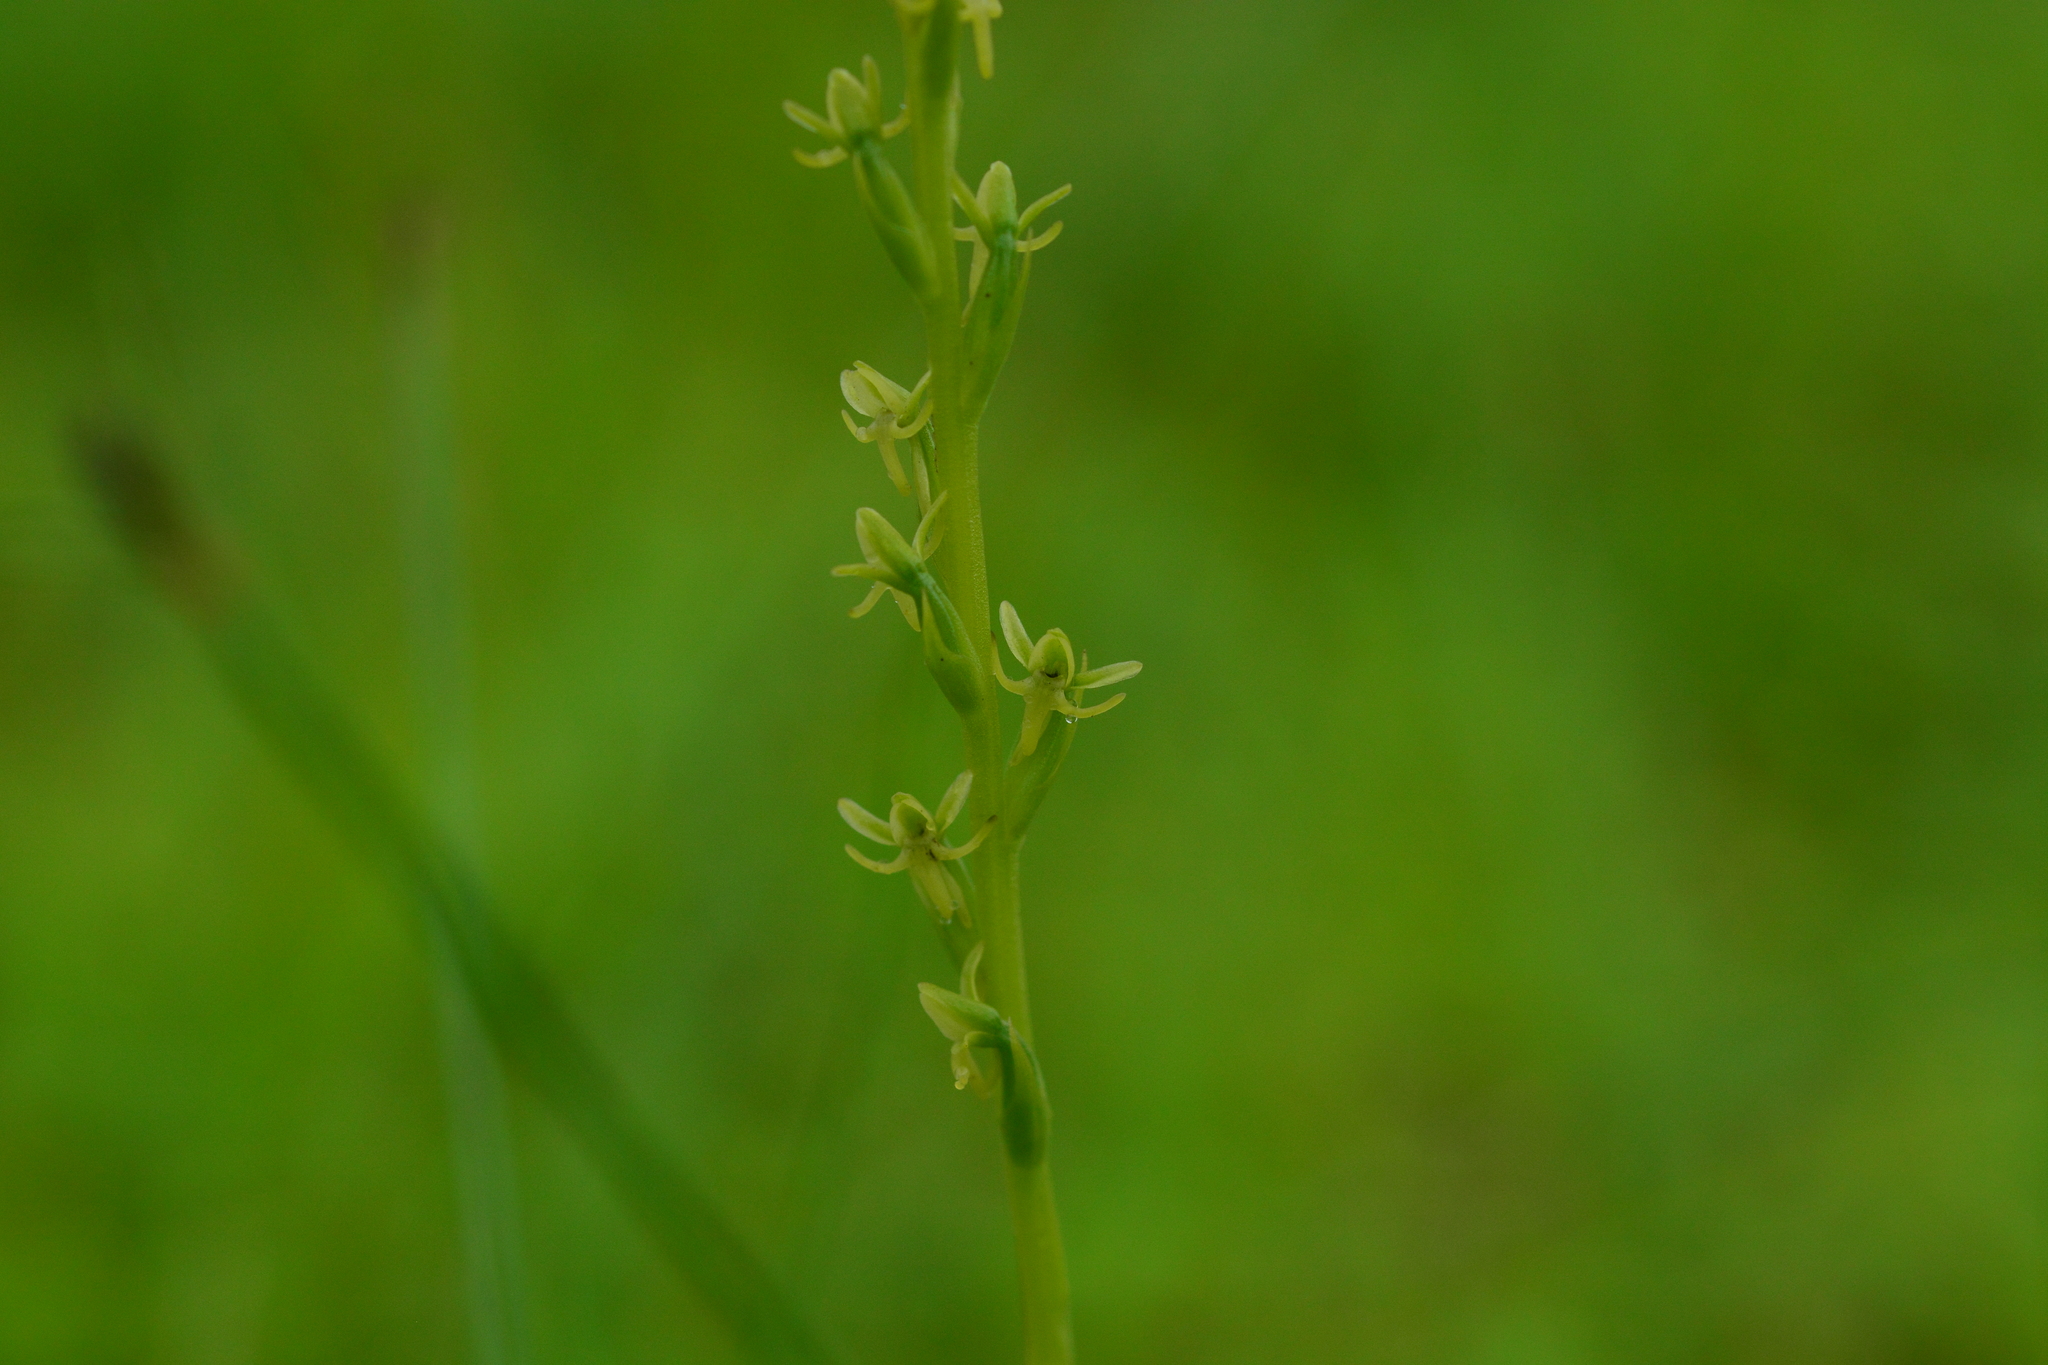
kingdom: Plantae
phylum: Tracheophyta
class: Liliopsida
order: Asparagales
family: Orchidaceae
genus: Peristylus
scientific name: Peristylus densus
